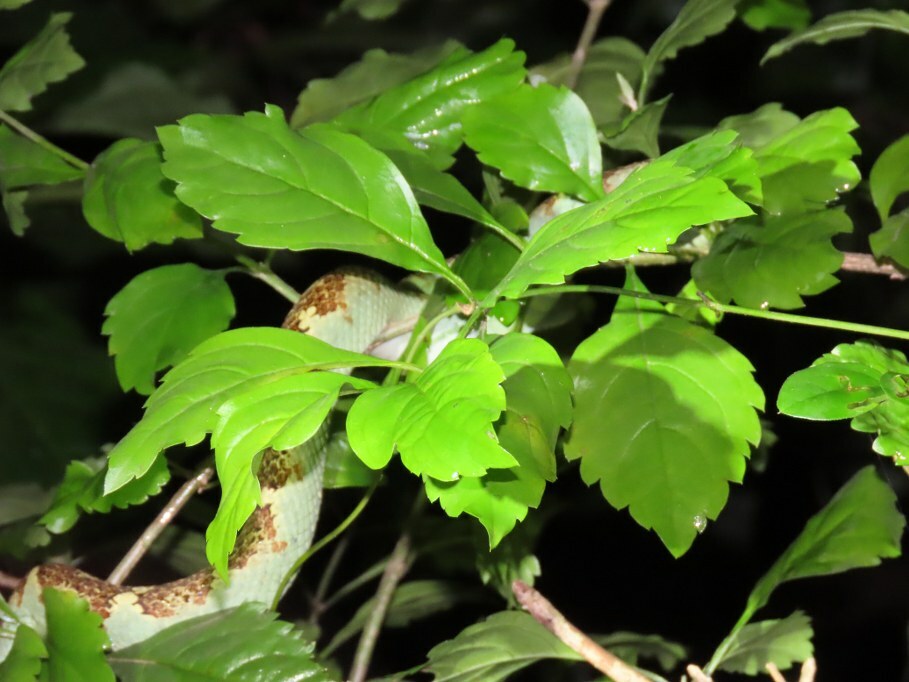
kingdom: Animalia
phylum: Chordata
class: Squamata
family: Viperidae
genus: Craspedocephalus
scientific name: Craspedocephalus malabaricus
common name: Malabarian pit viper
